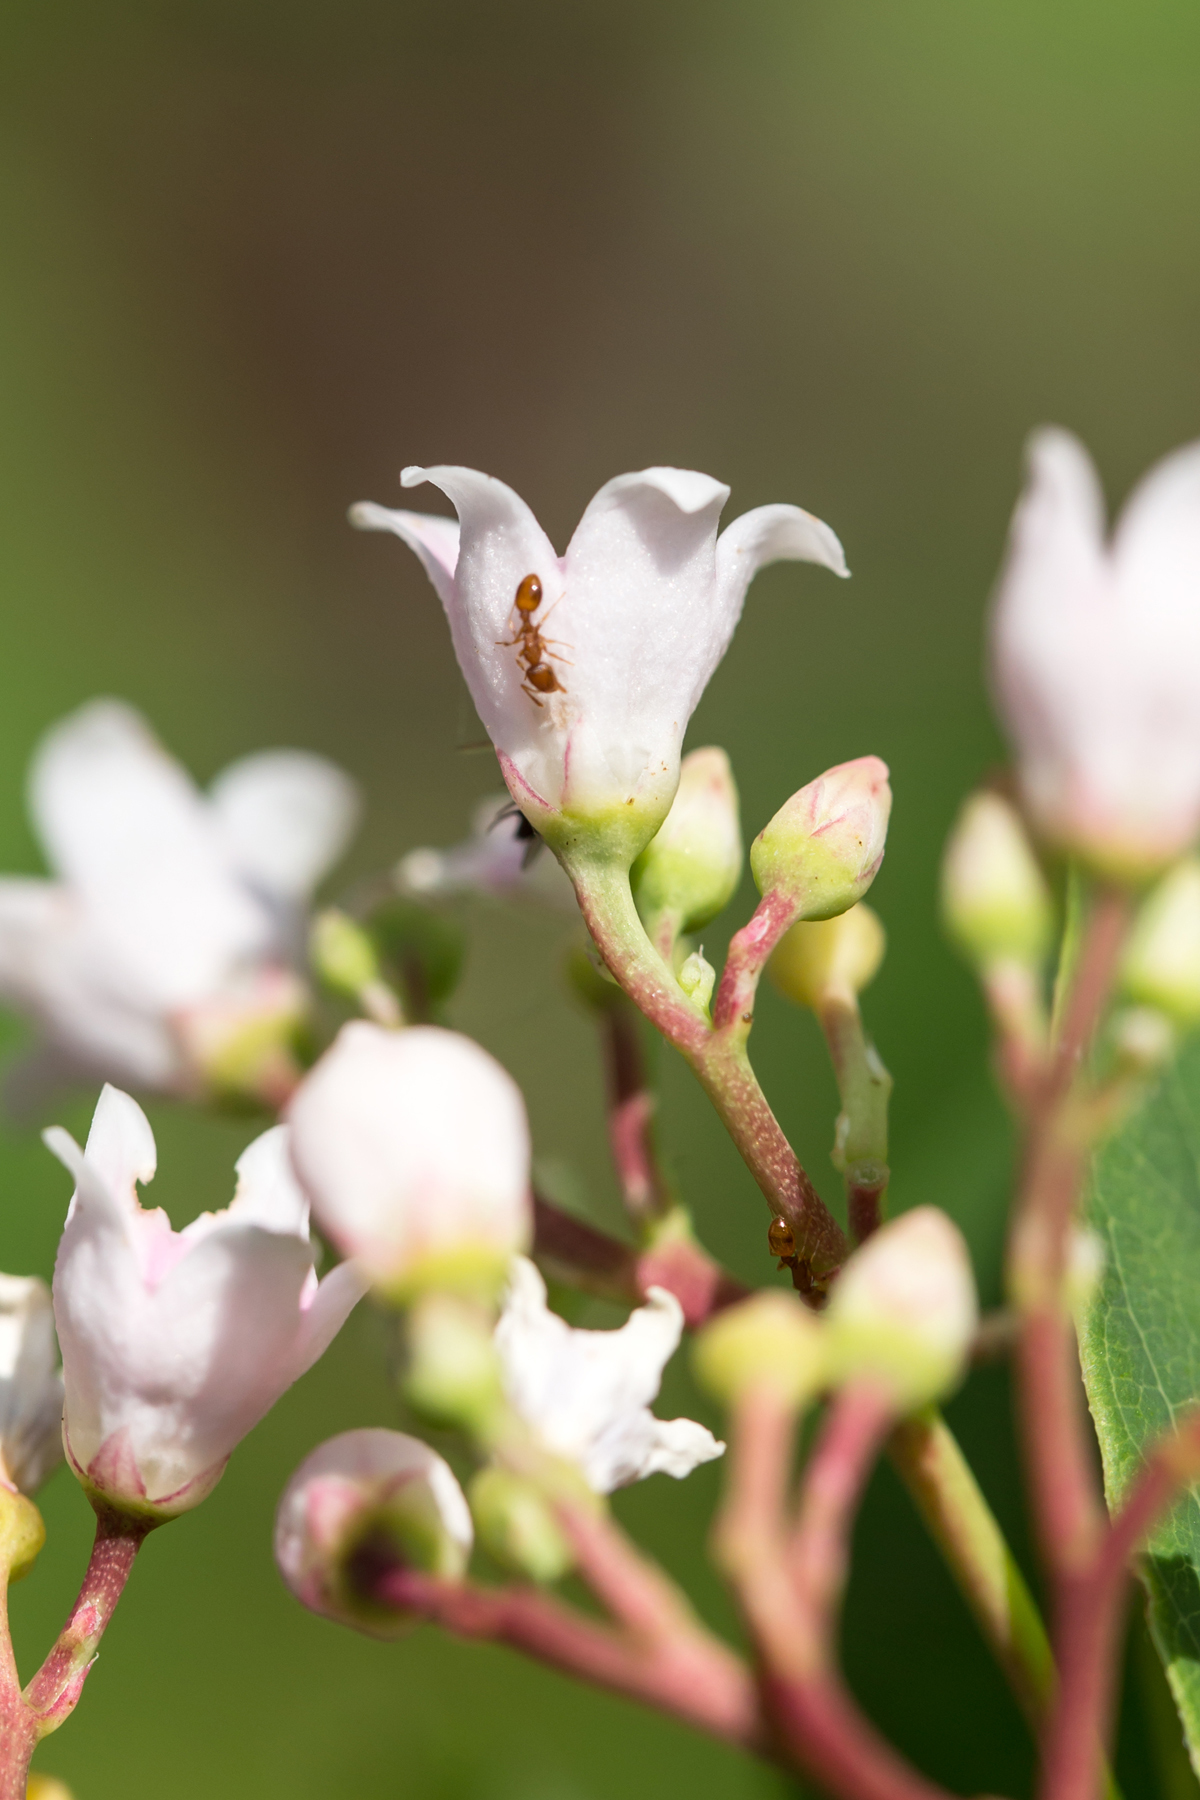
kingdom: Plantae
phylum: Tracheophyta
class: Magnoliopsida
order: Gentianales
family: Apocynaceae
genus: Apocynum
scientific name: Apocynum androsaemifolium
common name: Spreading dogbane
